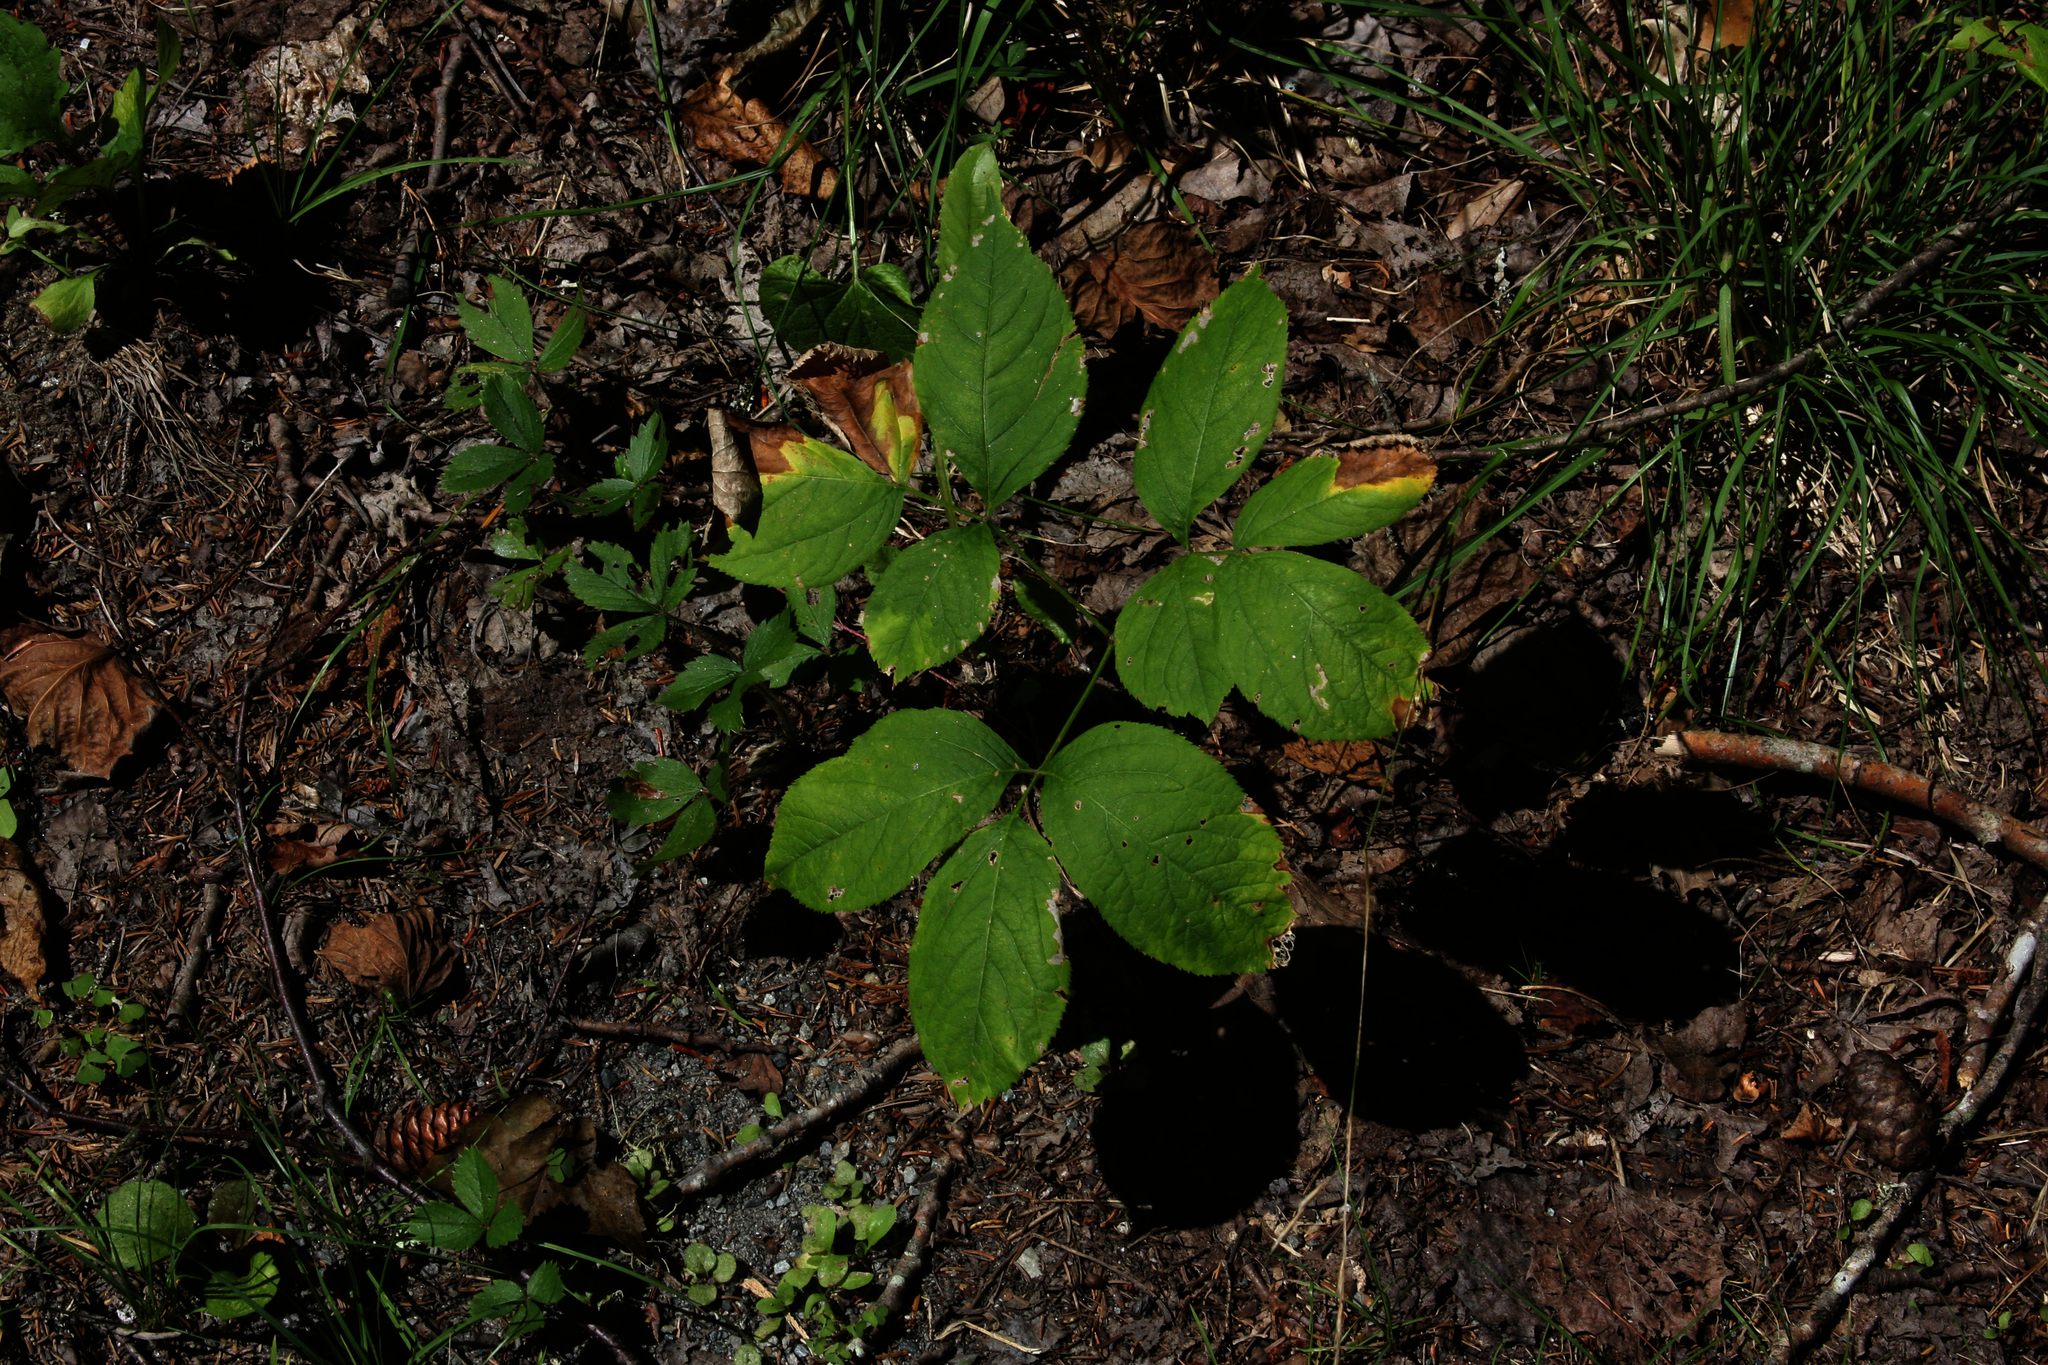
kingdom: Plantae
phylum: Tracheophyta
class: Magnoliopsida
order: Apiales
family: Araliaceae
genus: Aralia
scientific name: Aralia nudicaulis
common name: Wild sarsaparilla
